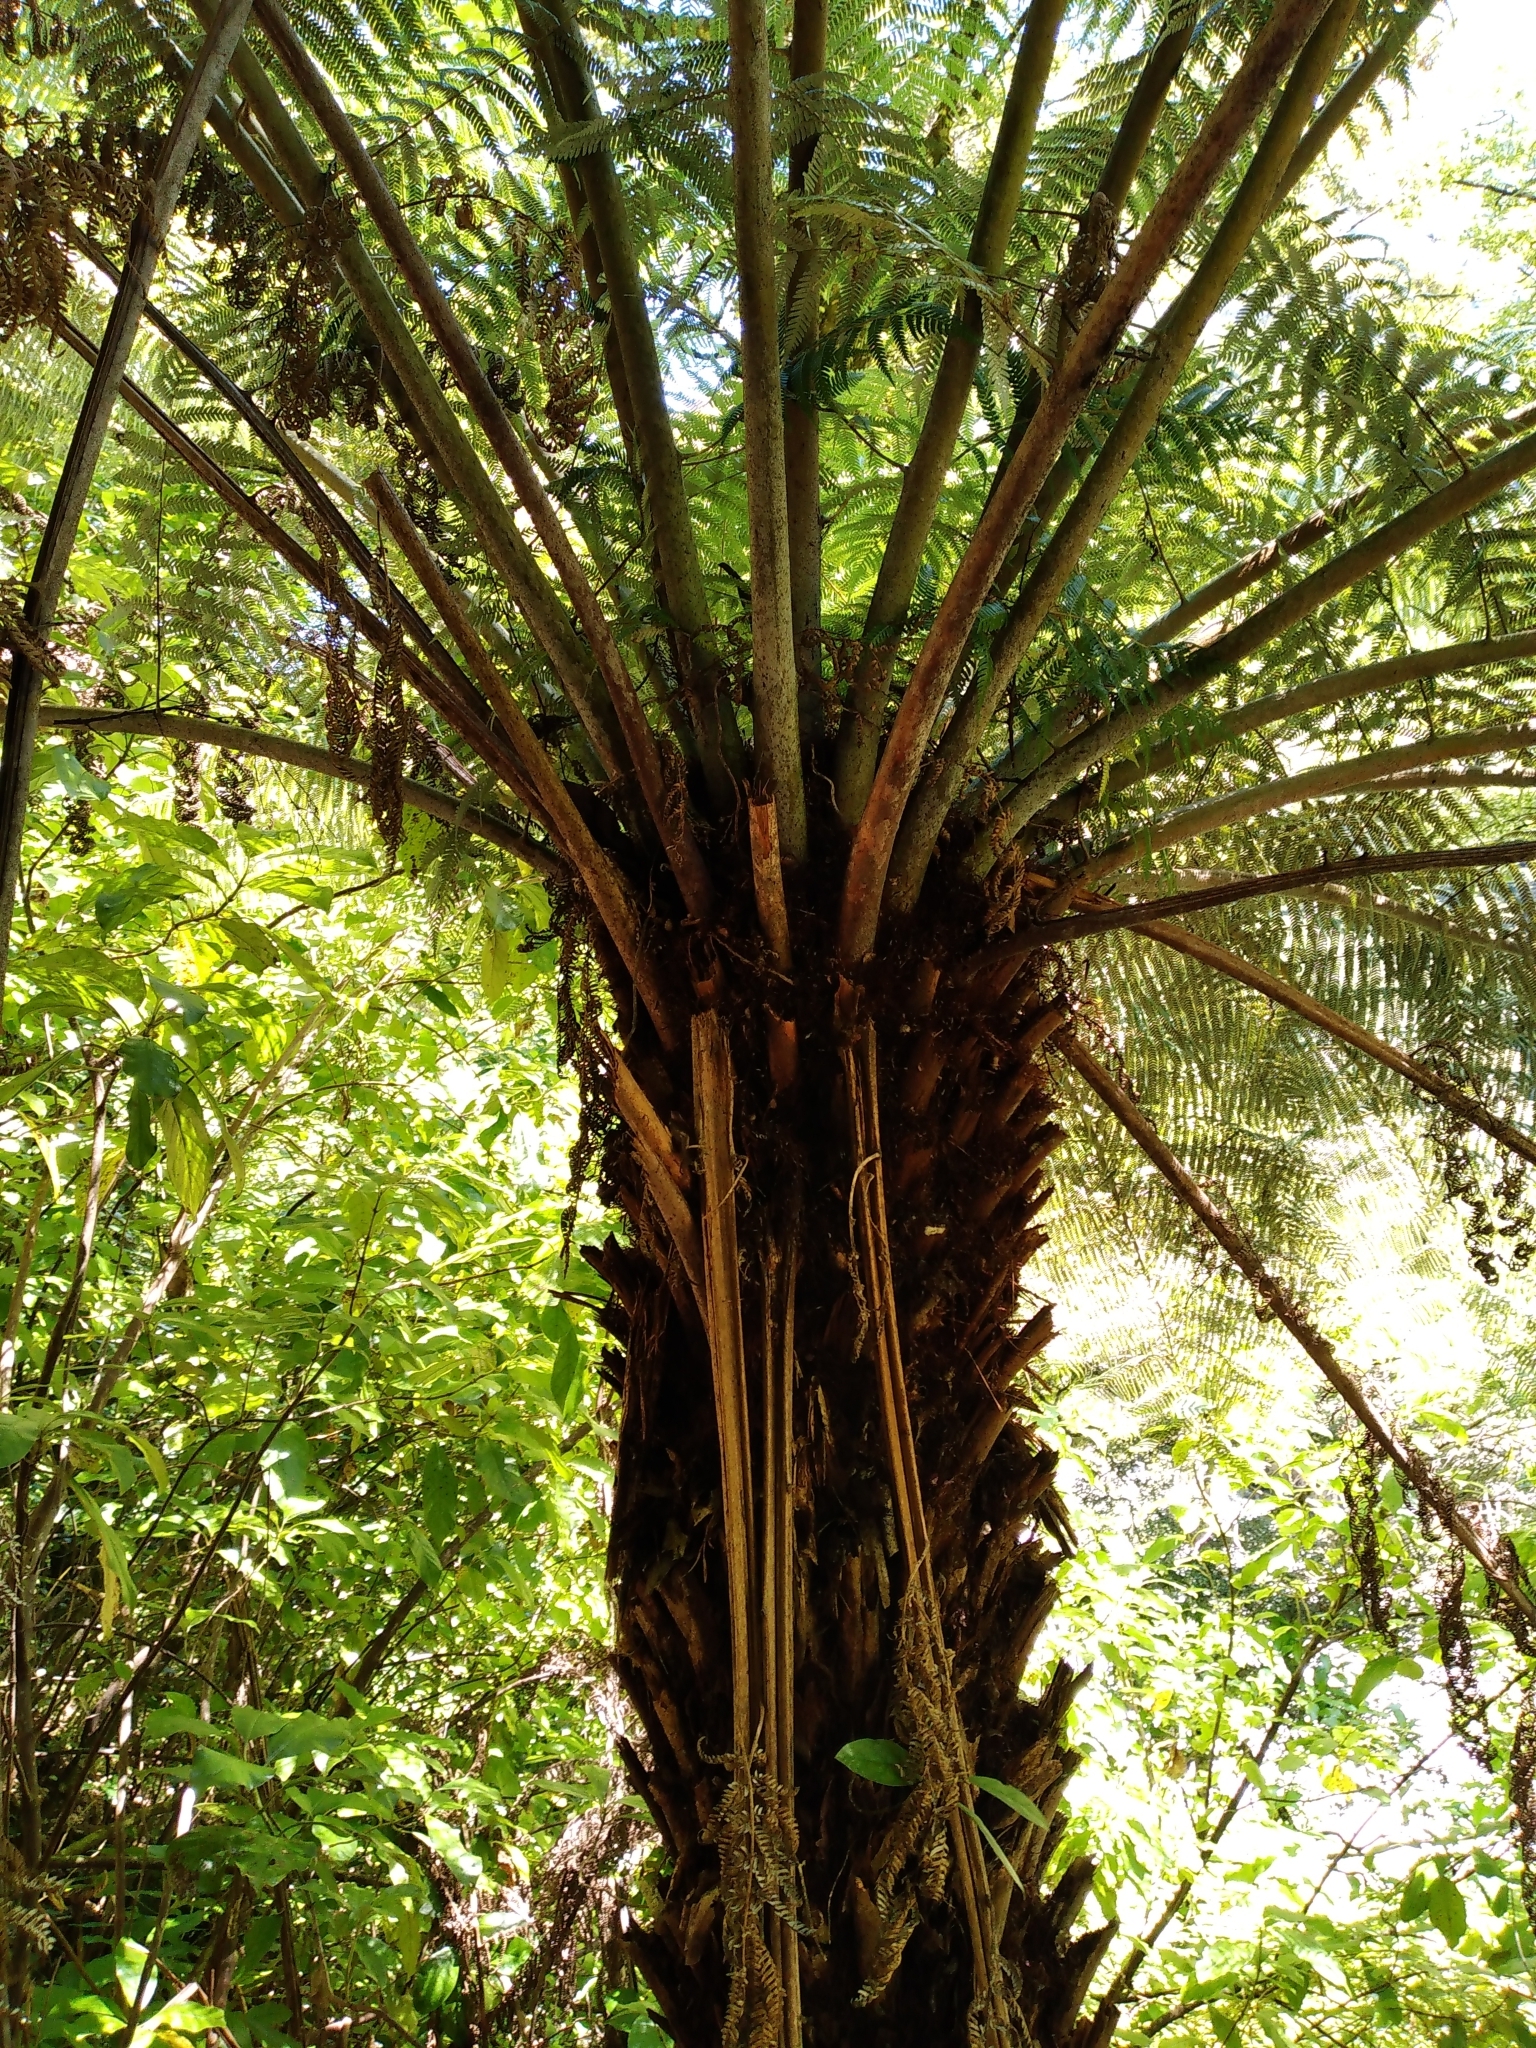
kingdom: Plantae
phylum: Tracheophyta
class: Polypodiopsida
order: Cyatheales
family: Cyatheaceae
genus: Alsophila
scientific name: Alsophila dealbata
